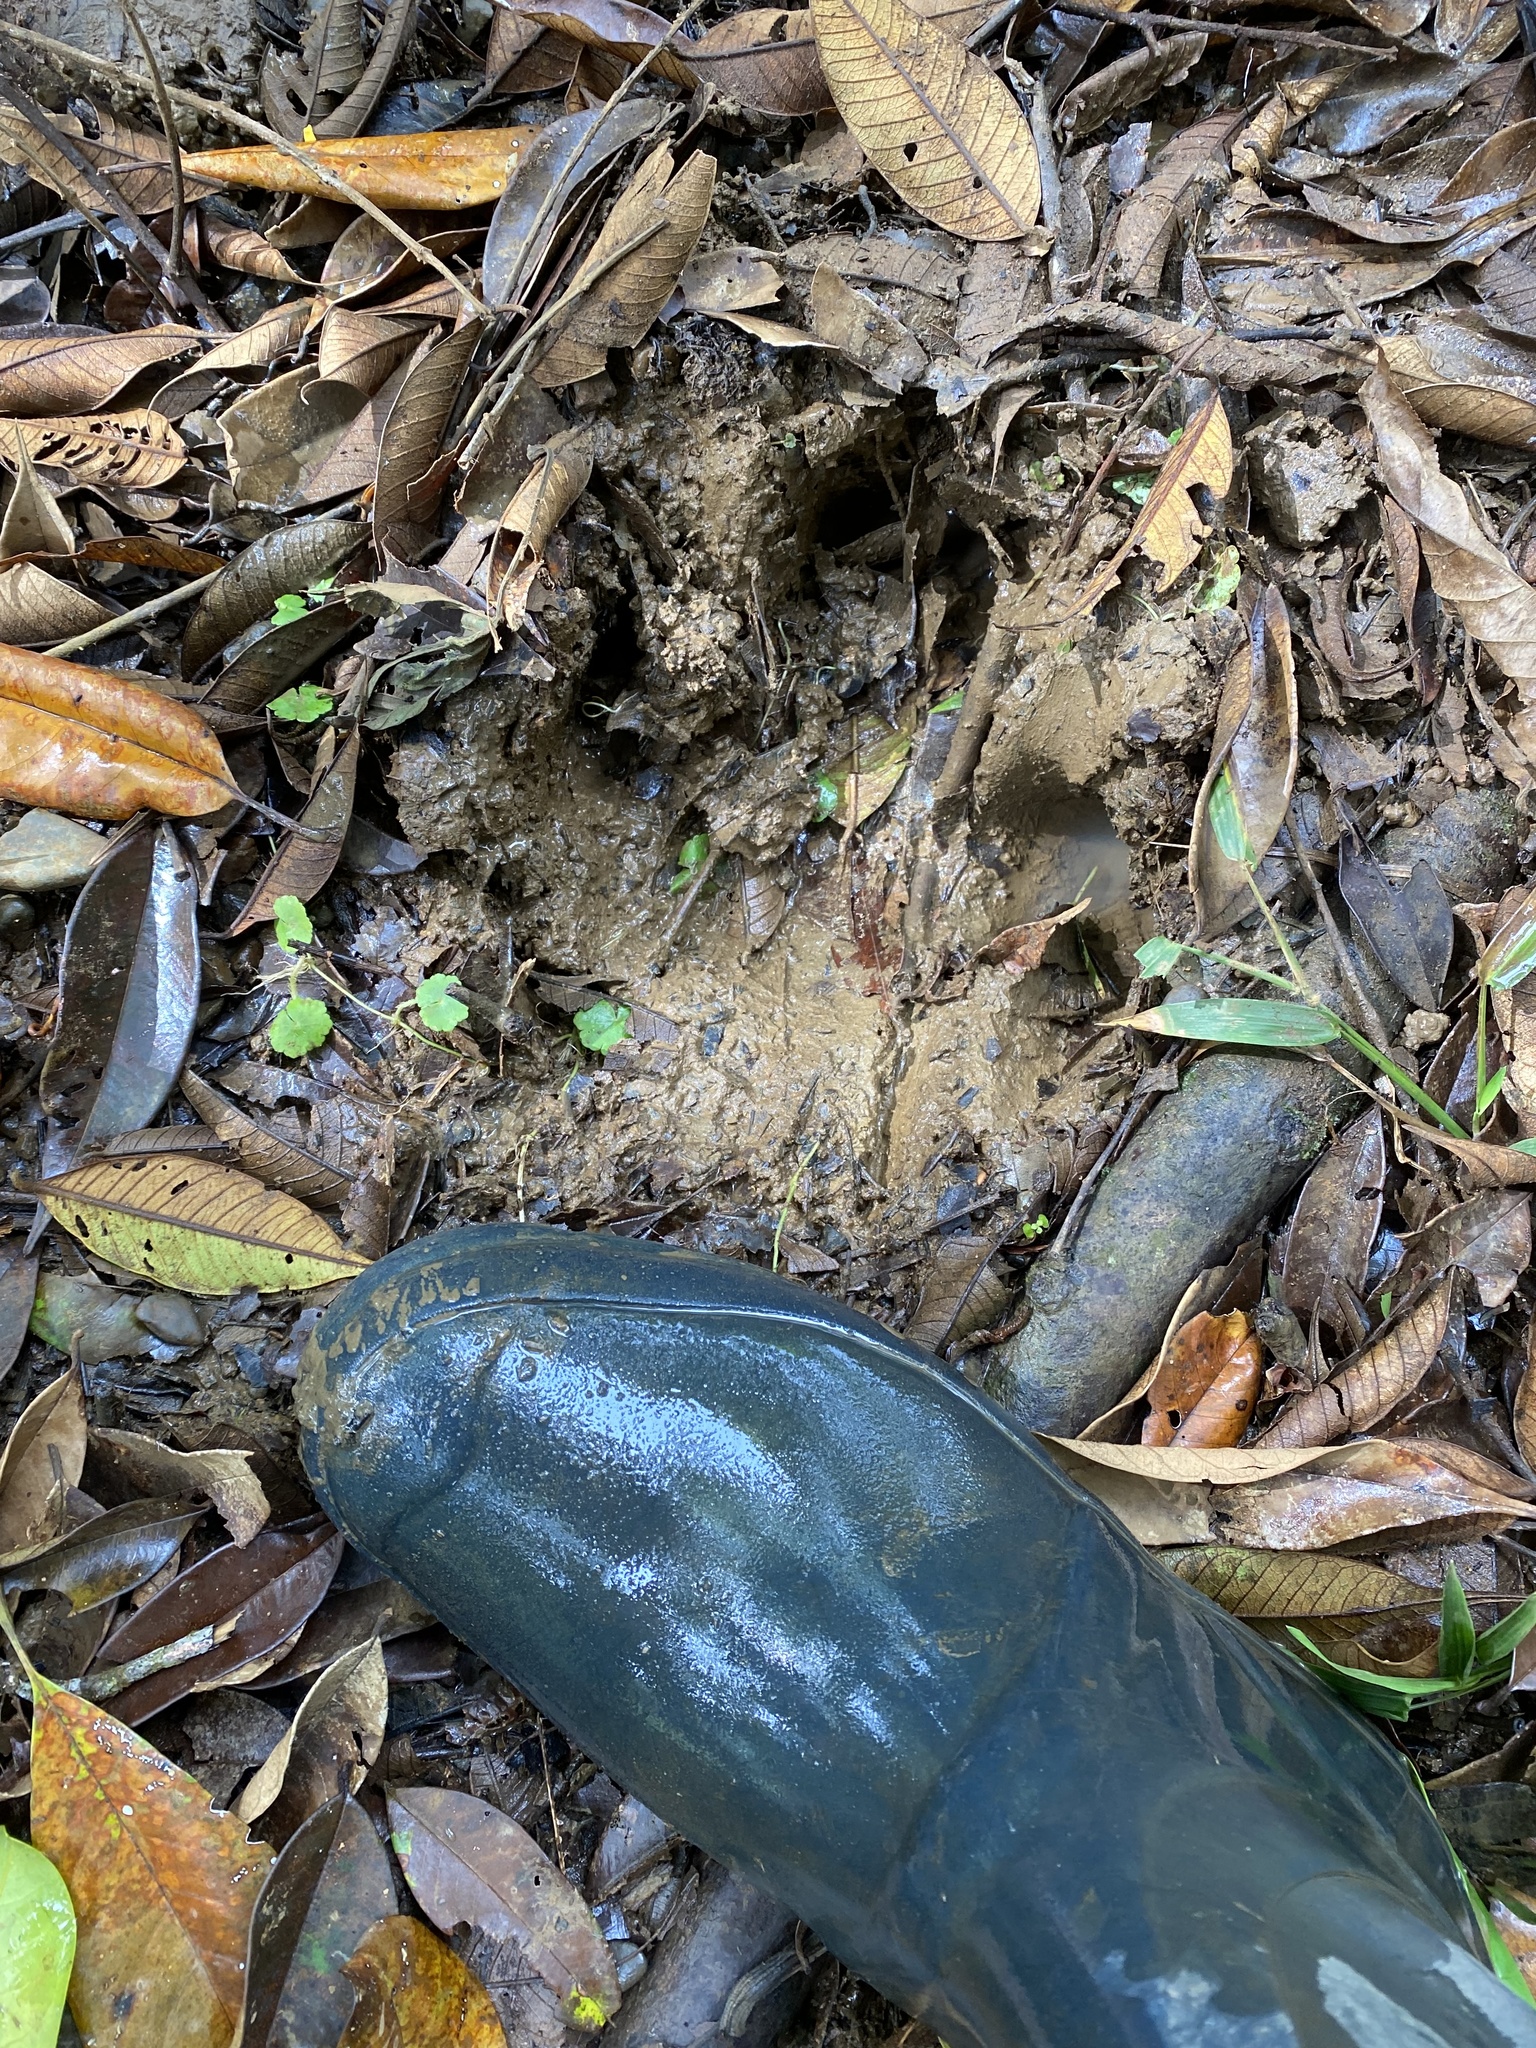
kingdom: Animalia
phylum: Chordata
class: Mammalia
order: Perissodactyla
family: Tapiridae
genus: Tapirella
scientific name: Tapirella bairdii
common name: Baird's tapir
